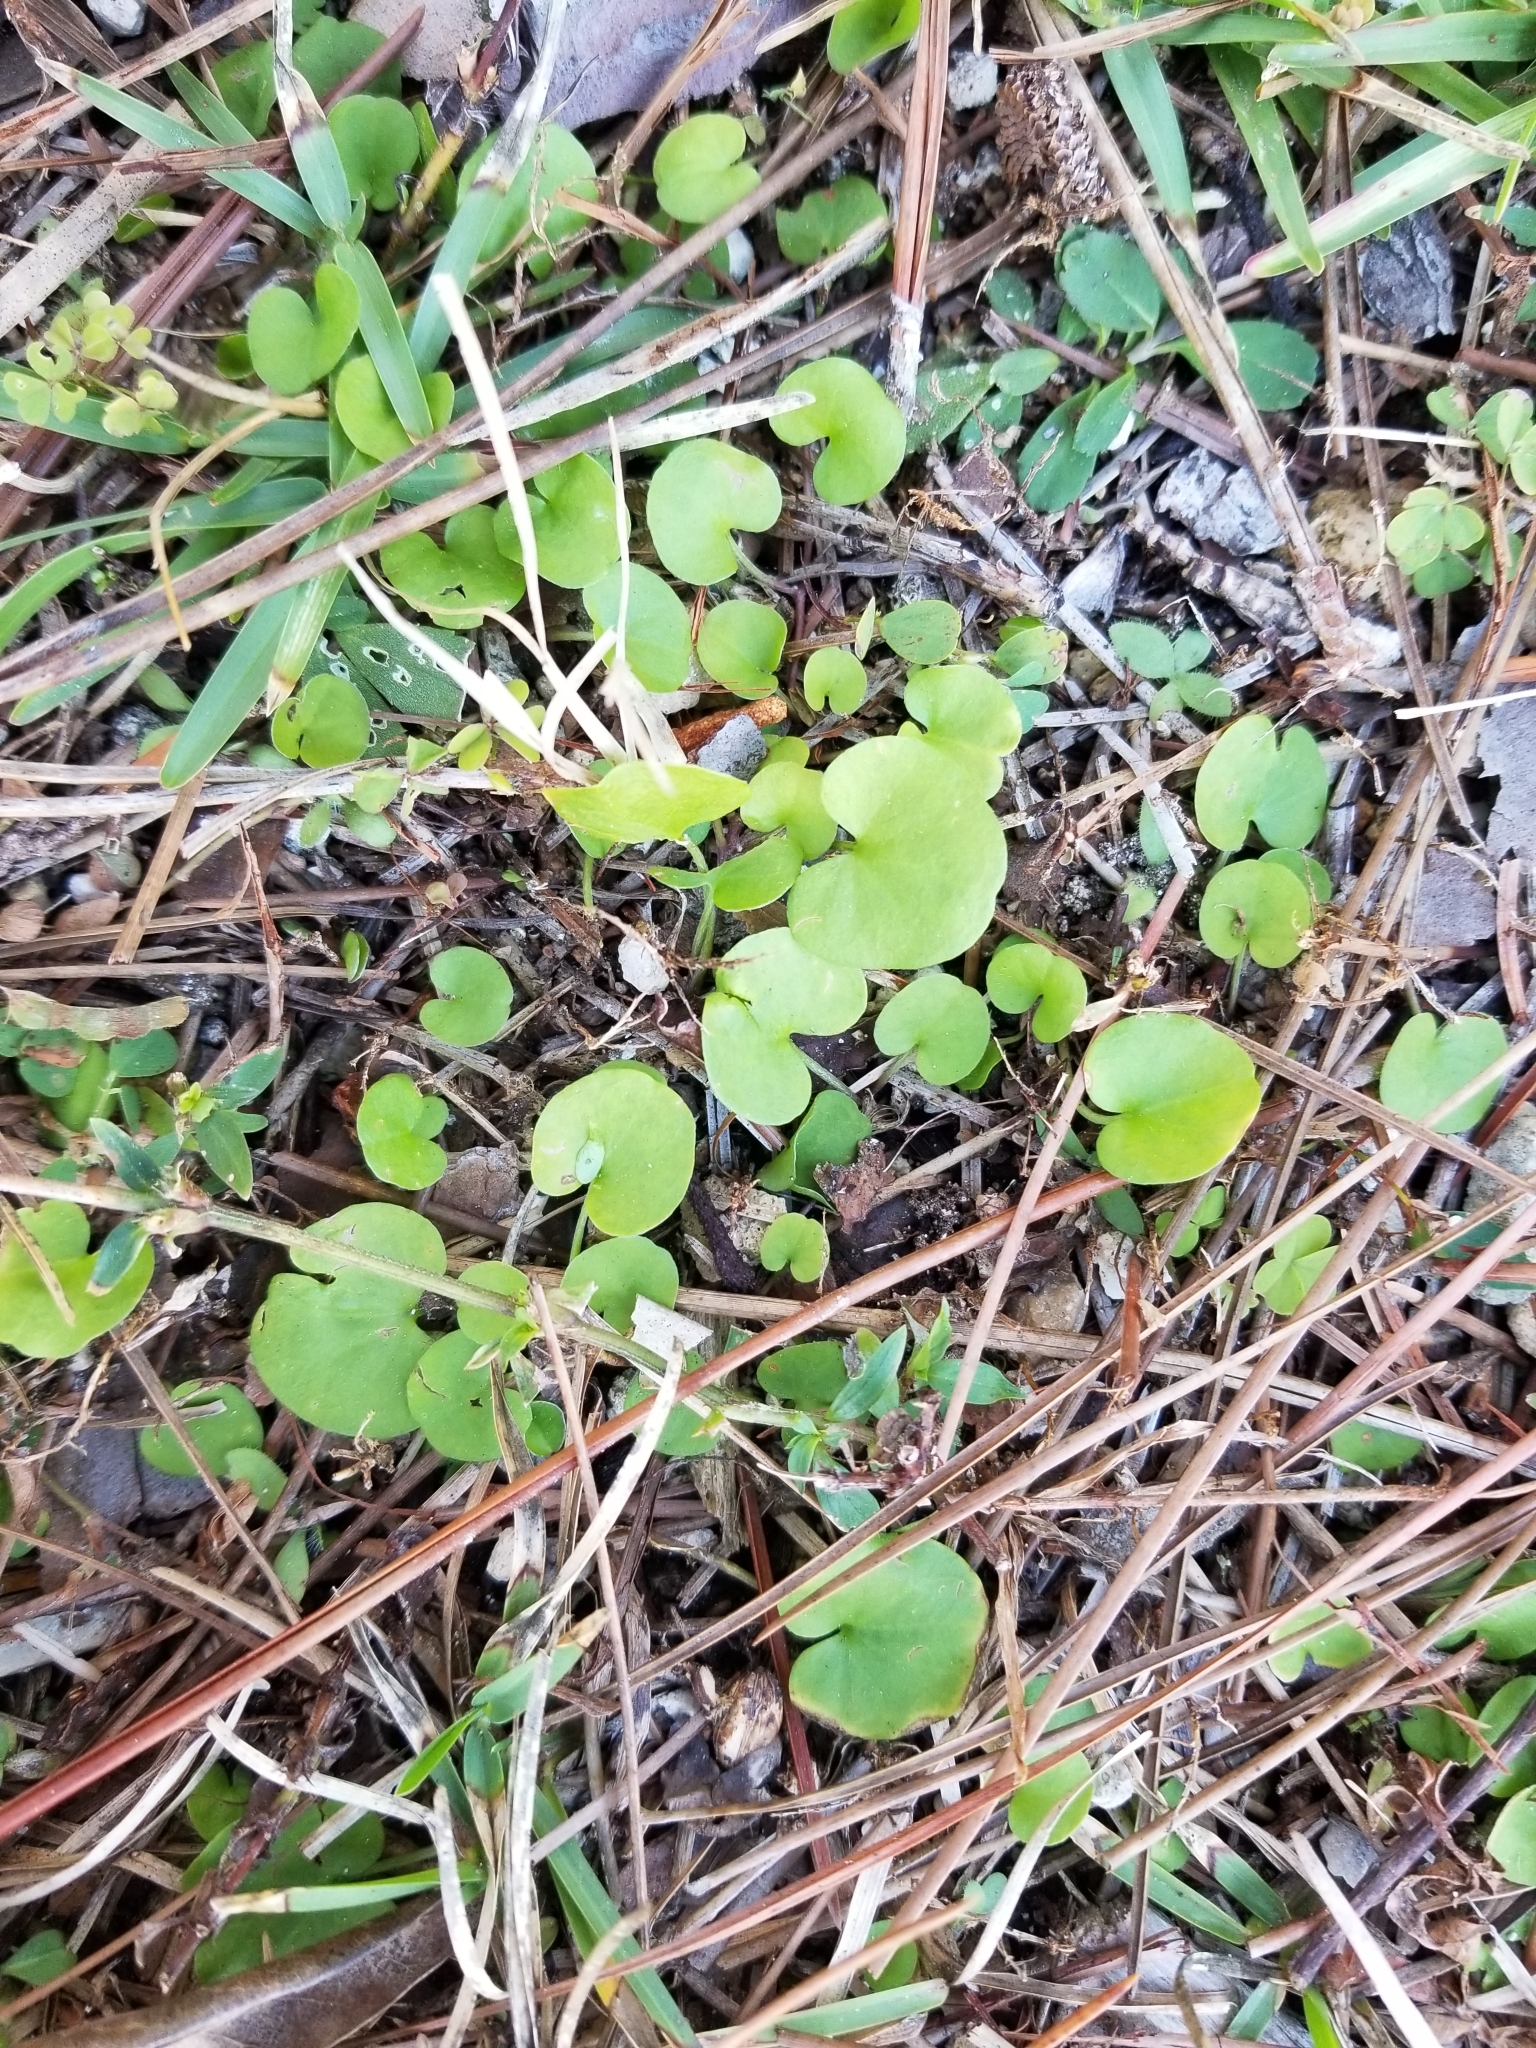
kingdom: Plantae
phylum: Tracheophyta
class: Magnoliopsida
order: Solanales
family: Convolvulaceae
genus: Dichondra
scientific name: Dichondra carolinensis
